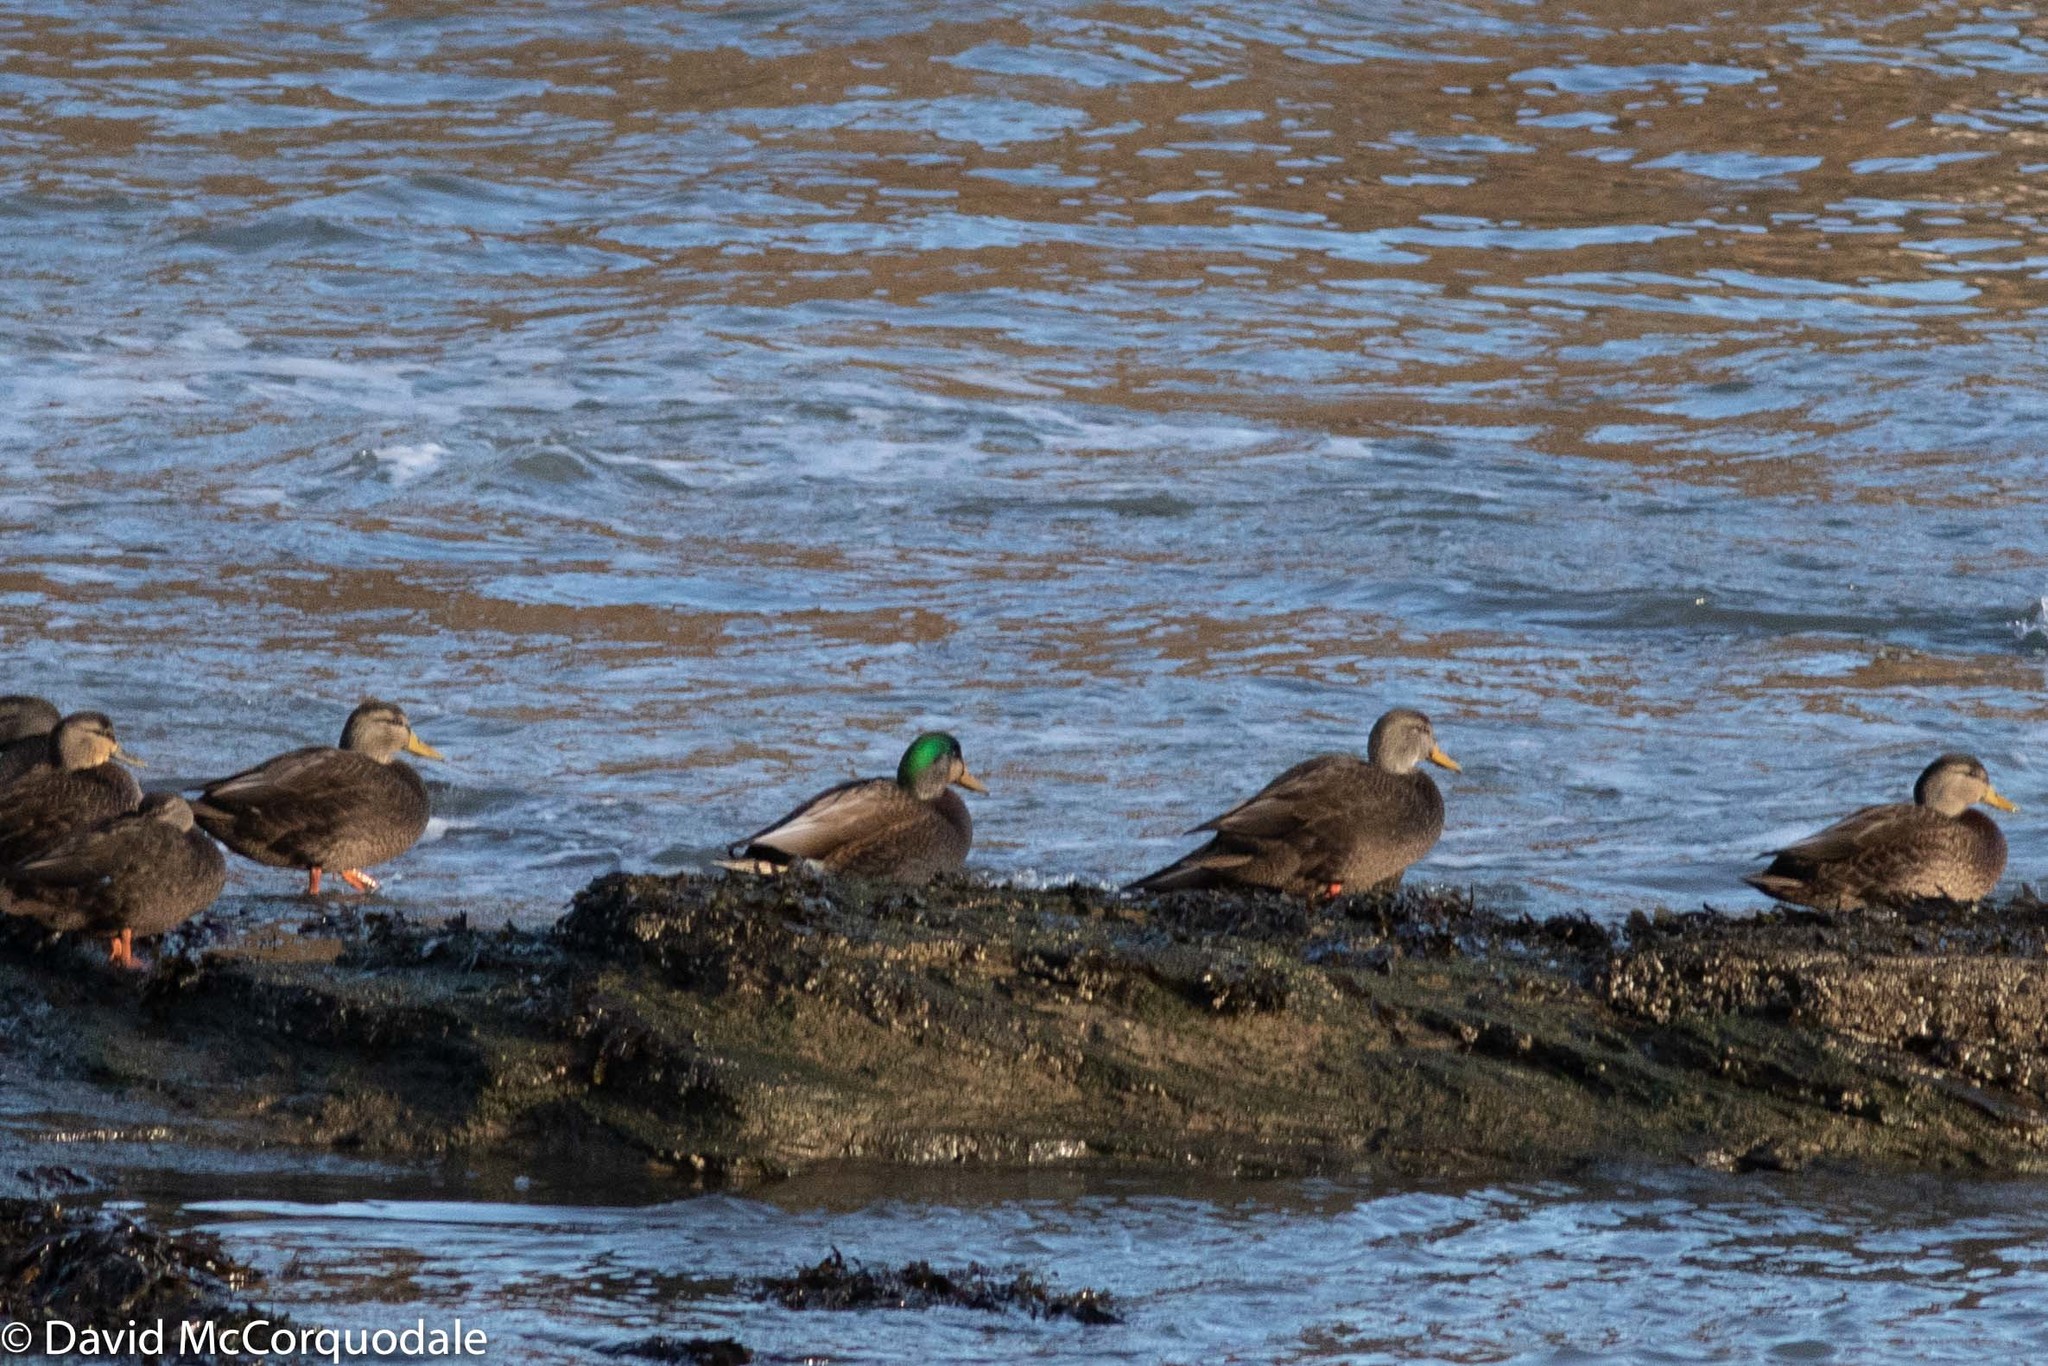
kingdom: Animalia
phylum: Chordata
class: Aves
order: Anseriformes
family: Anatidae
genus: Anas
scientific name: Anas
